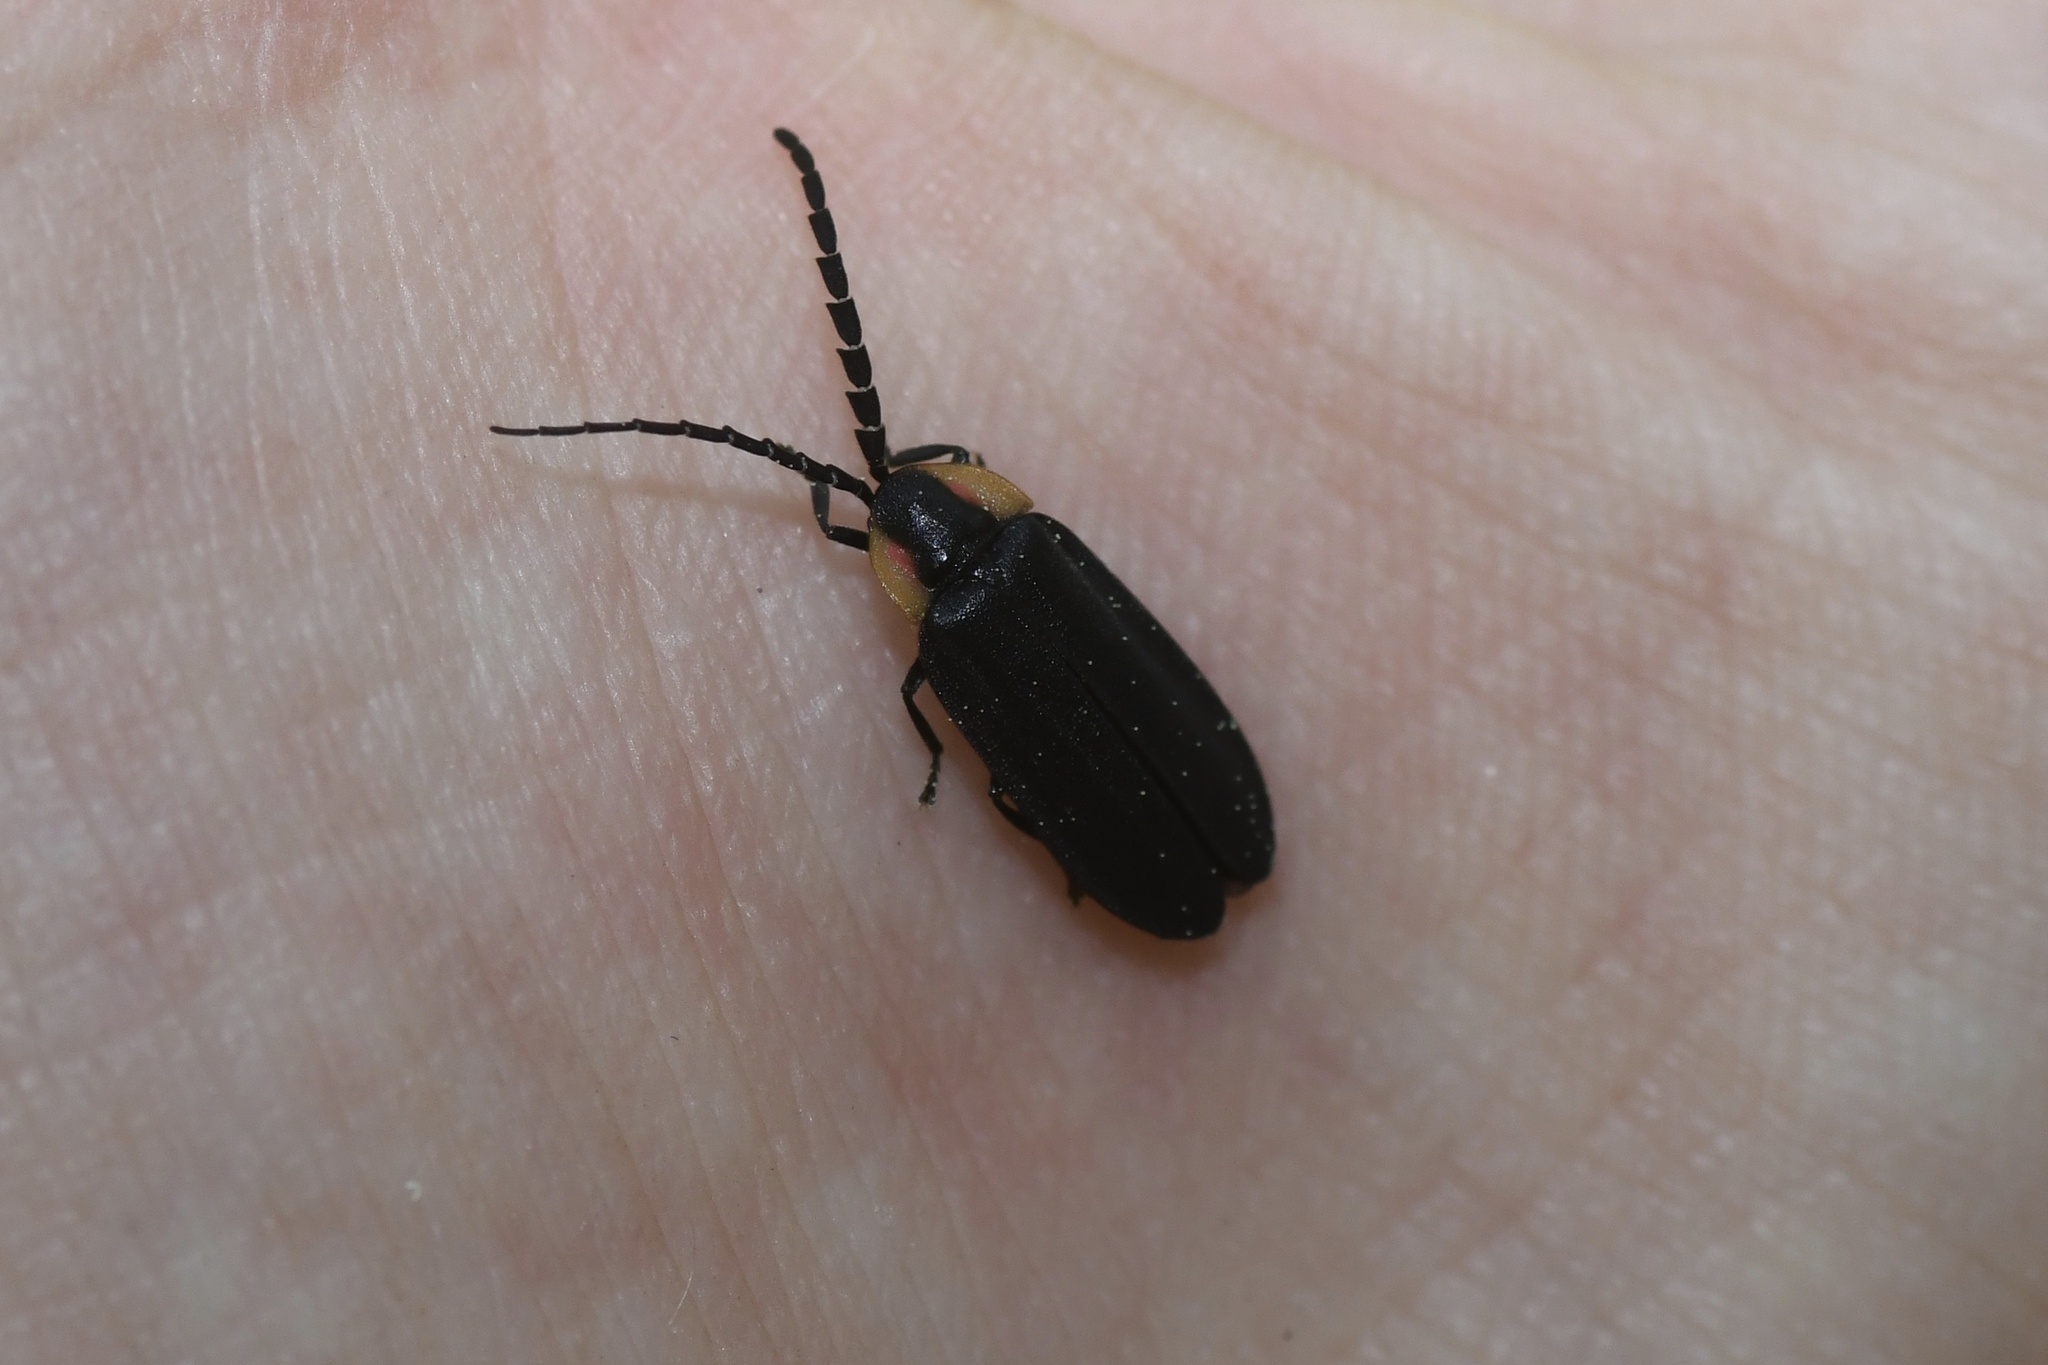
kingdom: Animalia
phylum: Arthropoda
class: Insecta
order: Coleoptera
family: Lampyridae
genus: Lucidota
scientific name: Lucidota atra
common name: Black firefly
